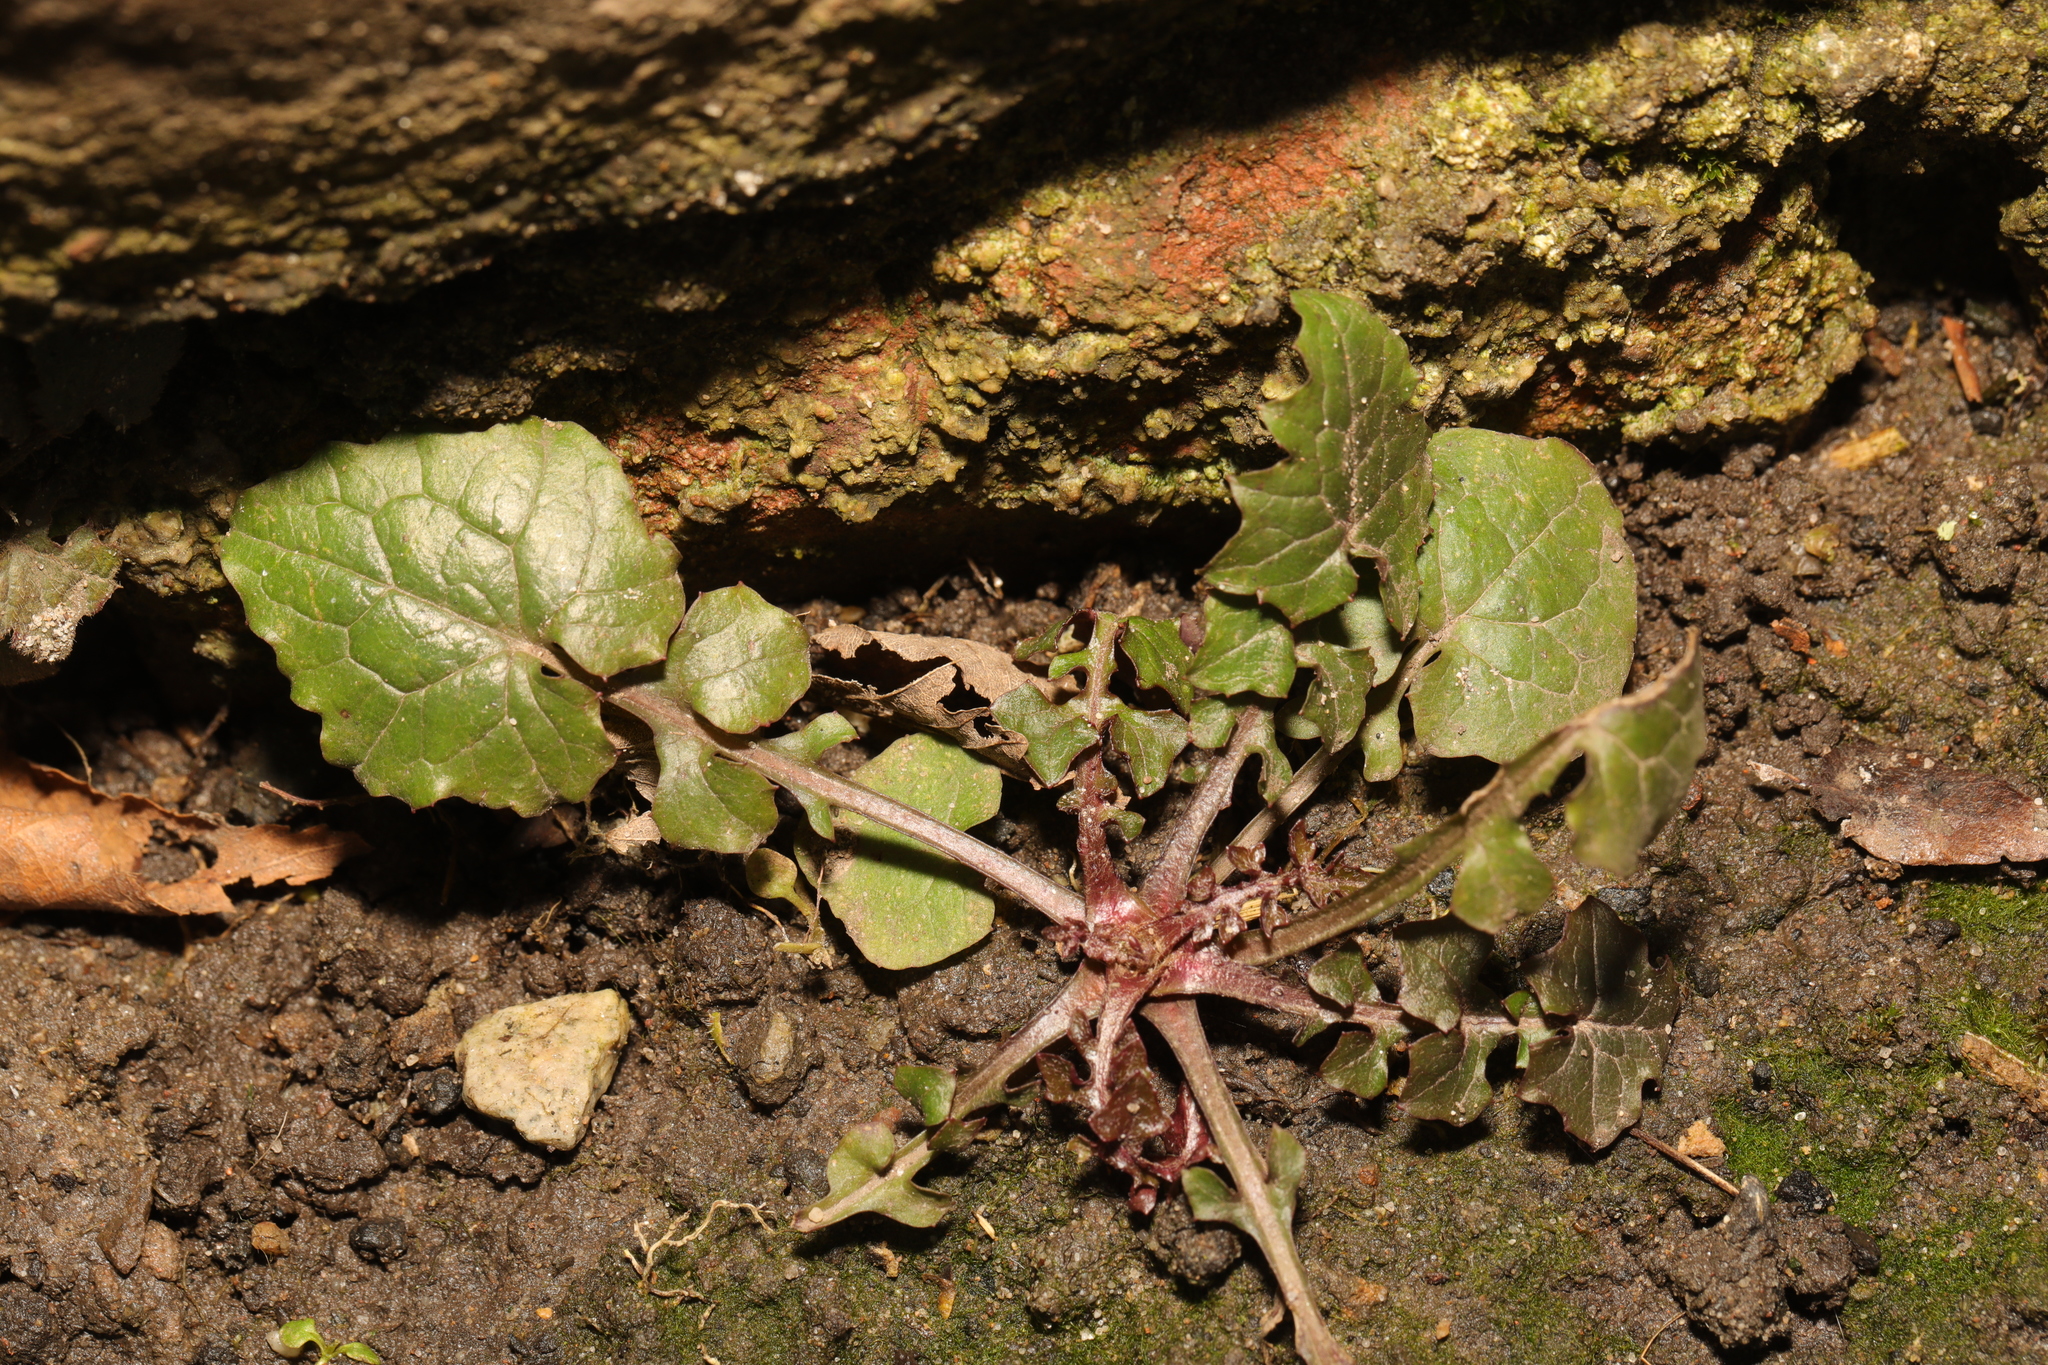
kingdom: Plantae
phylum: Tracheophyta
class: Magnoliopsida
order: Asterales
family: Asteraceae
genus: Mycelis
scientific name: Mycelis muralis
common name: Wall lettuce
